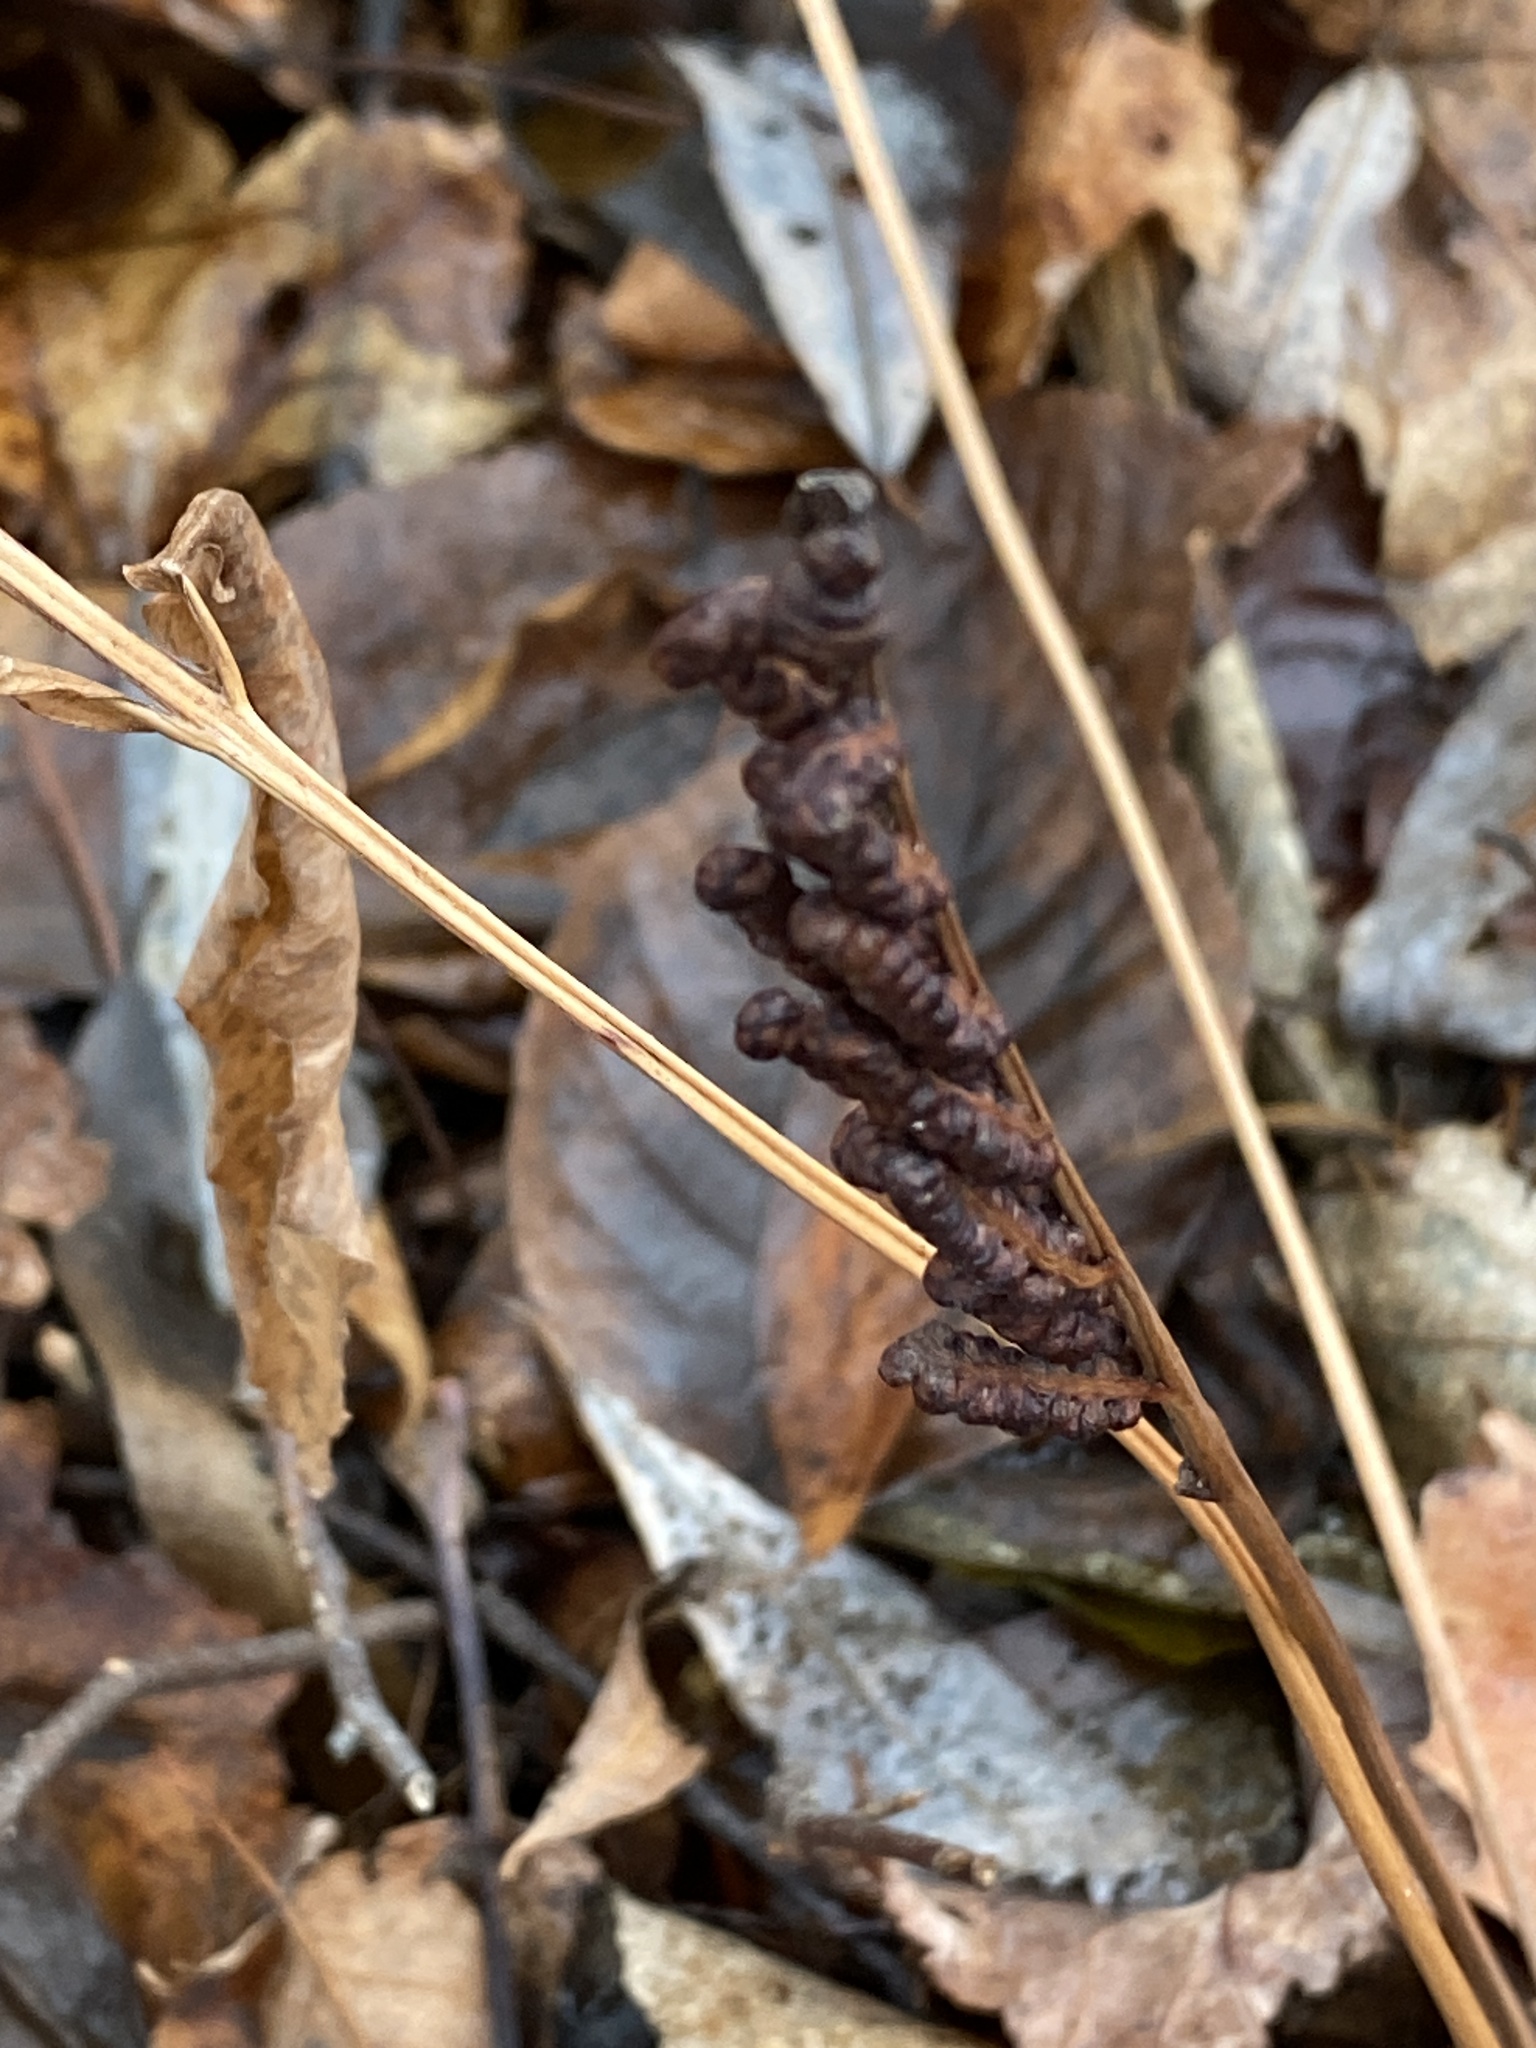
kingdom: Plantae
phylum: Tracheophyta
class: Polypodiopsida
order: Polypodiales
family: Onocleaceae
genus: Onoclea
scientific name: Onoclea sensibilis
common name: Sensitive fern
